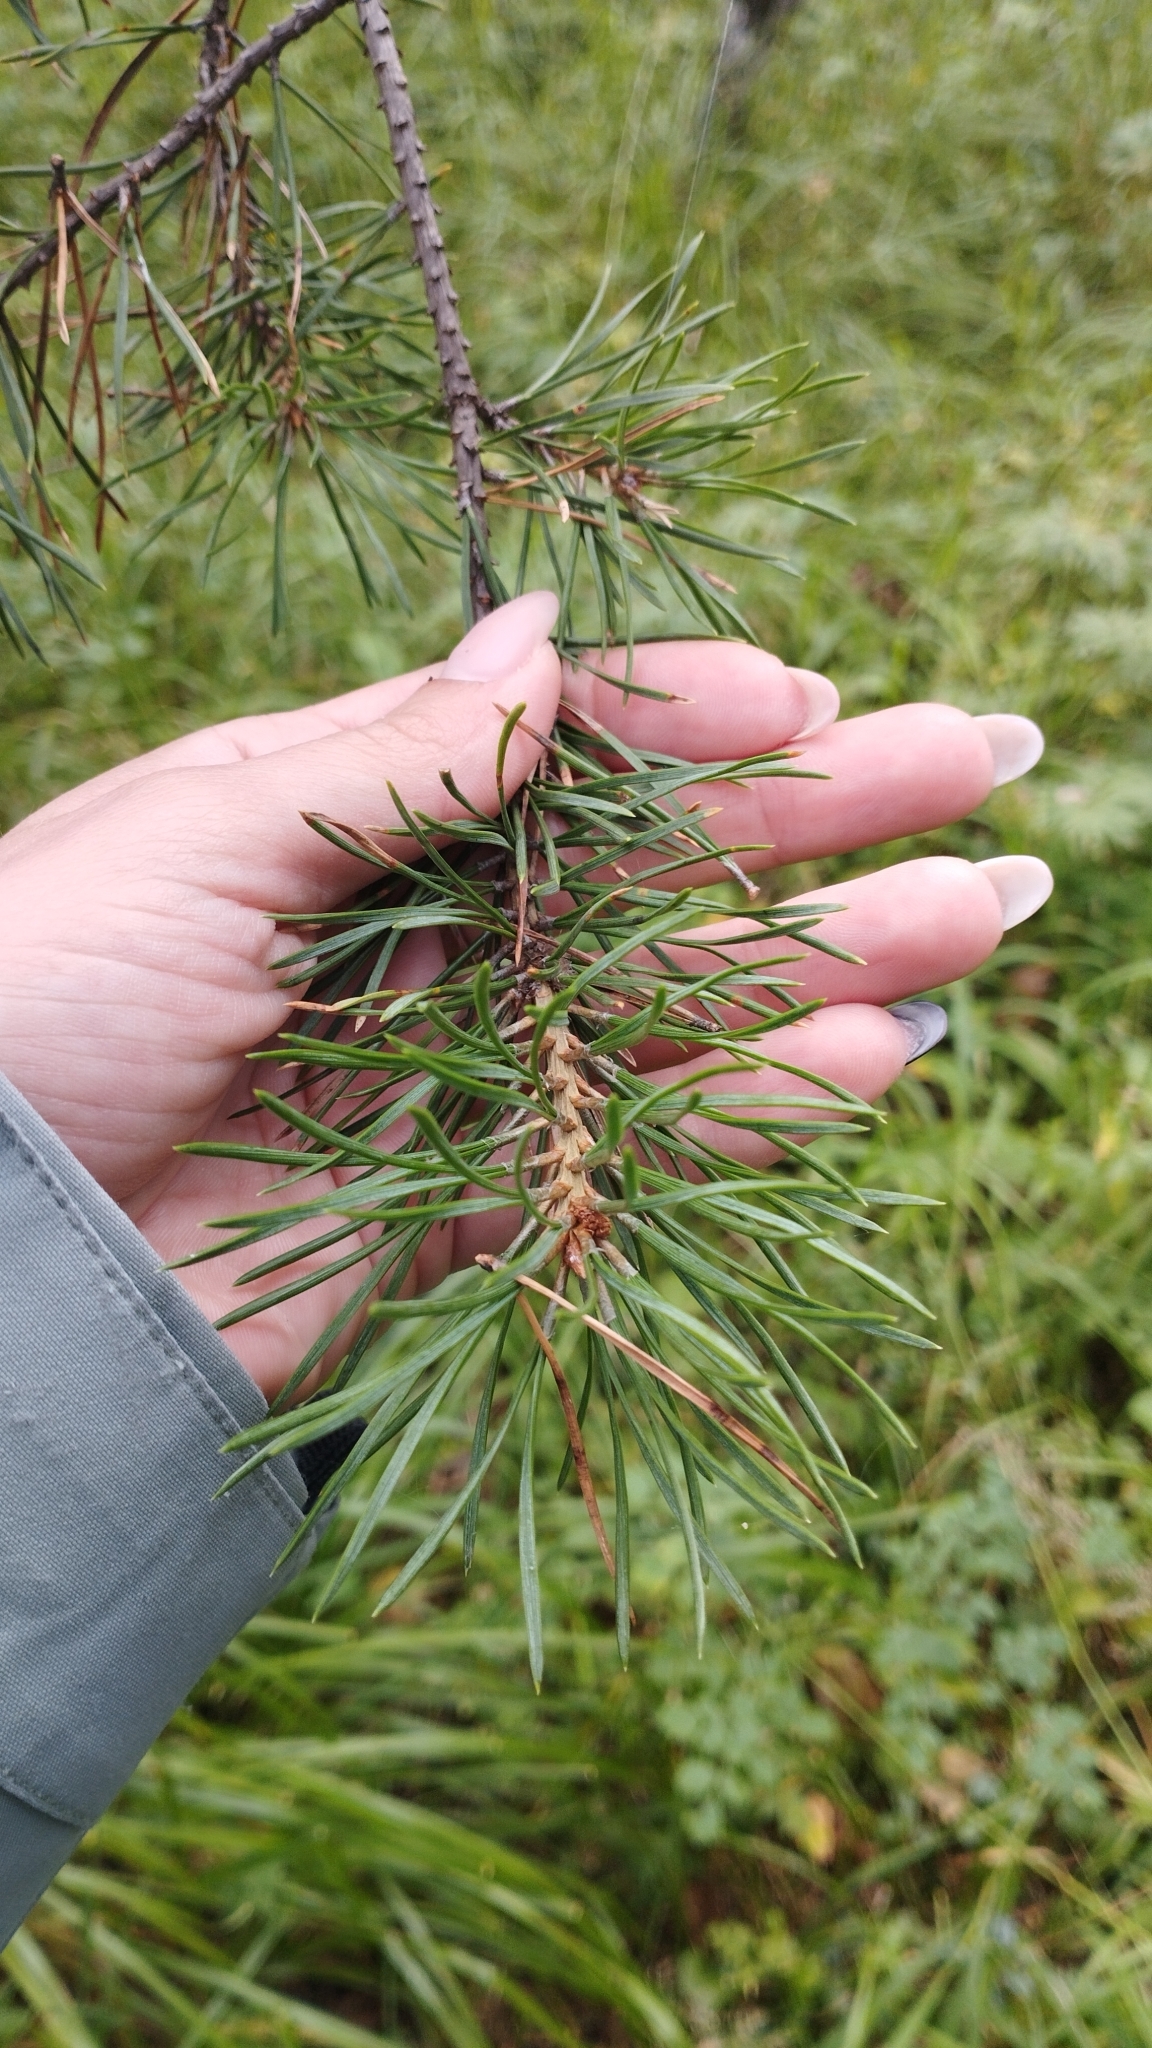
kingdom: Plantae
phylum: Tracheophyta
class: Pinopsida
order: Pinales
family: Pinaceae
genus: Pinus
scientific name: Pinus sylvestris
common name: Scots pine
